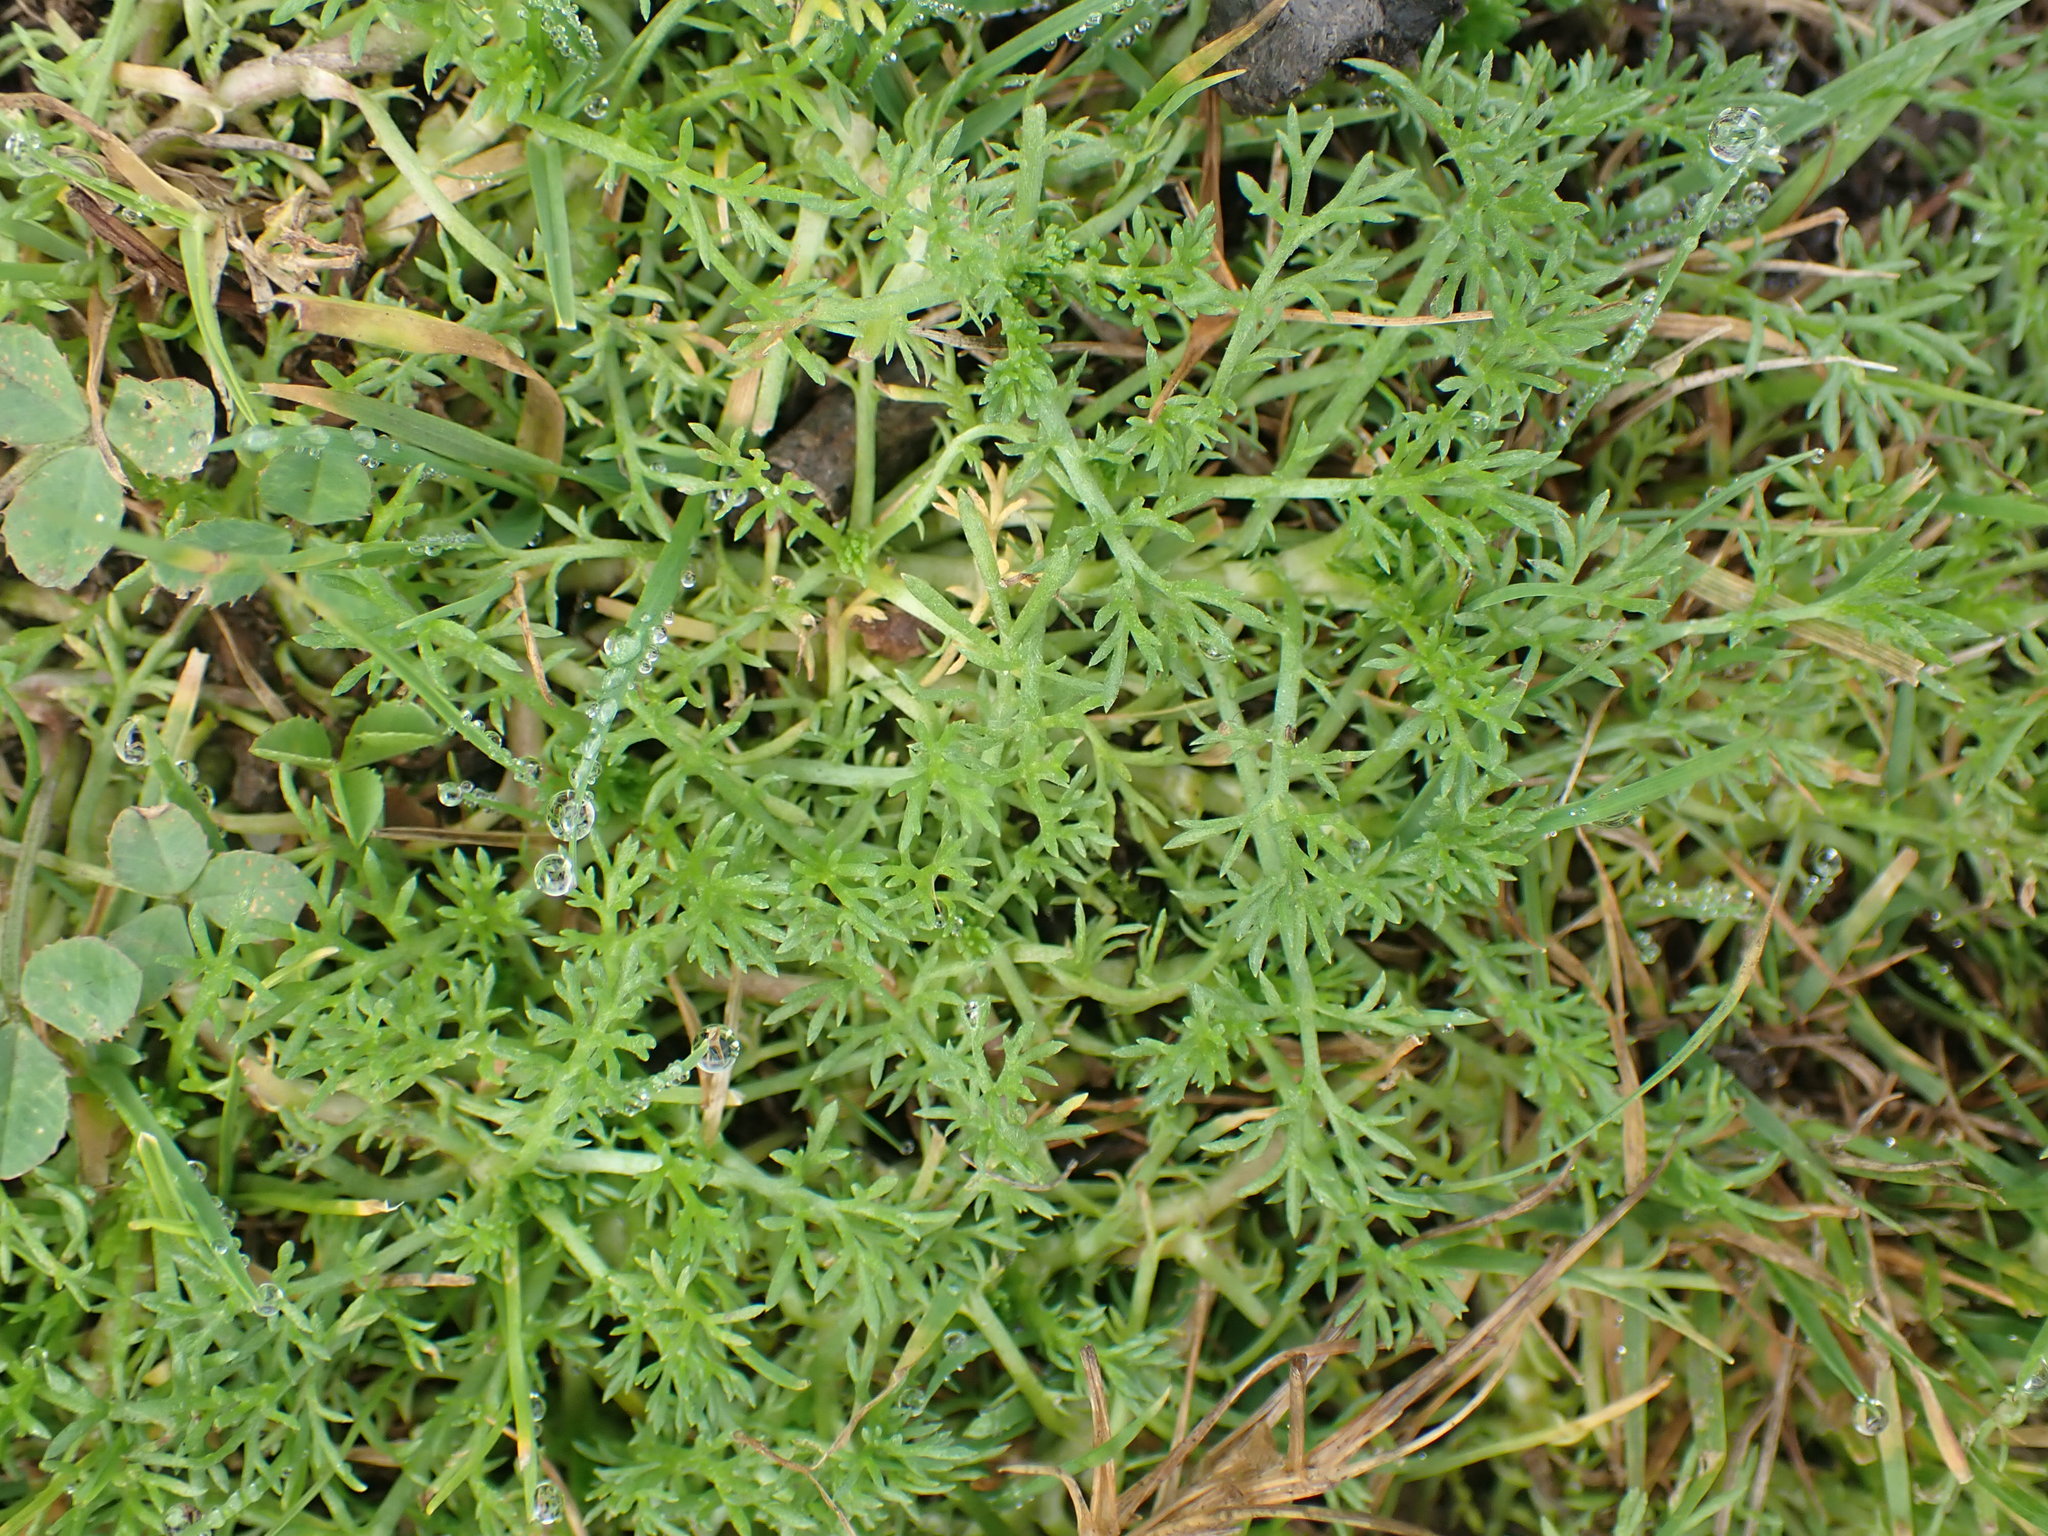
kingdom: Plantae
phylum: Tracheophyta
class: Magnoliopsida
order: Asterales
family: Asteraceae
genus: Chamaemelum
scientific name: Chamaemelum nobile
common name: Roman chamomile
